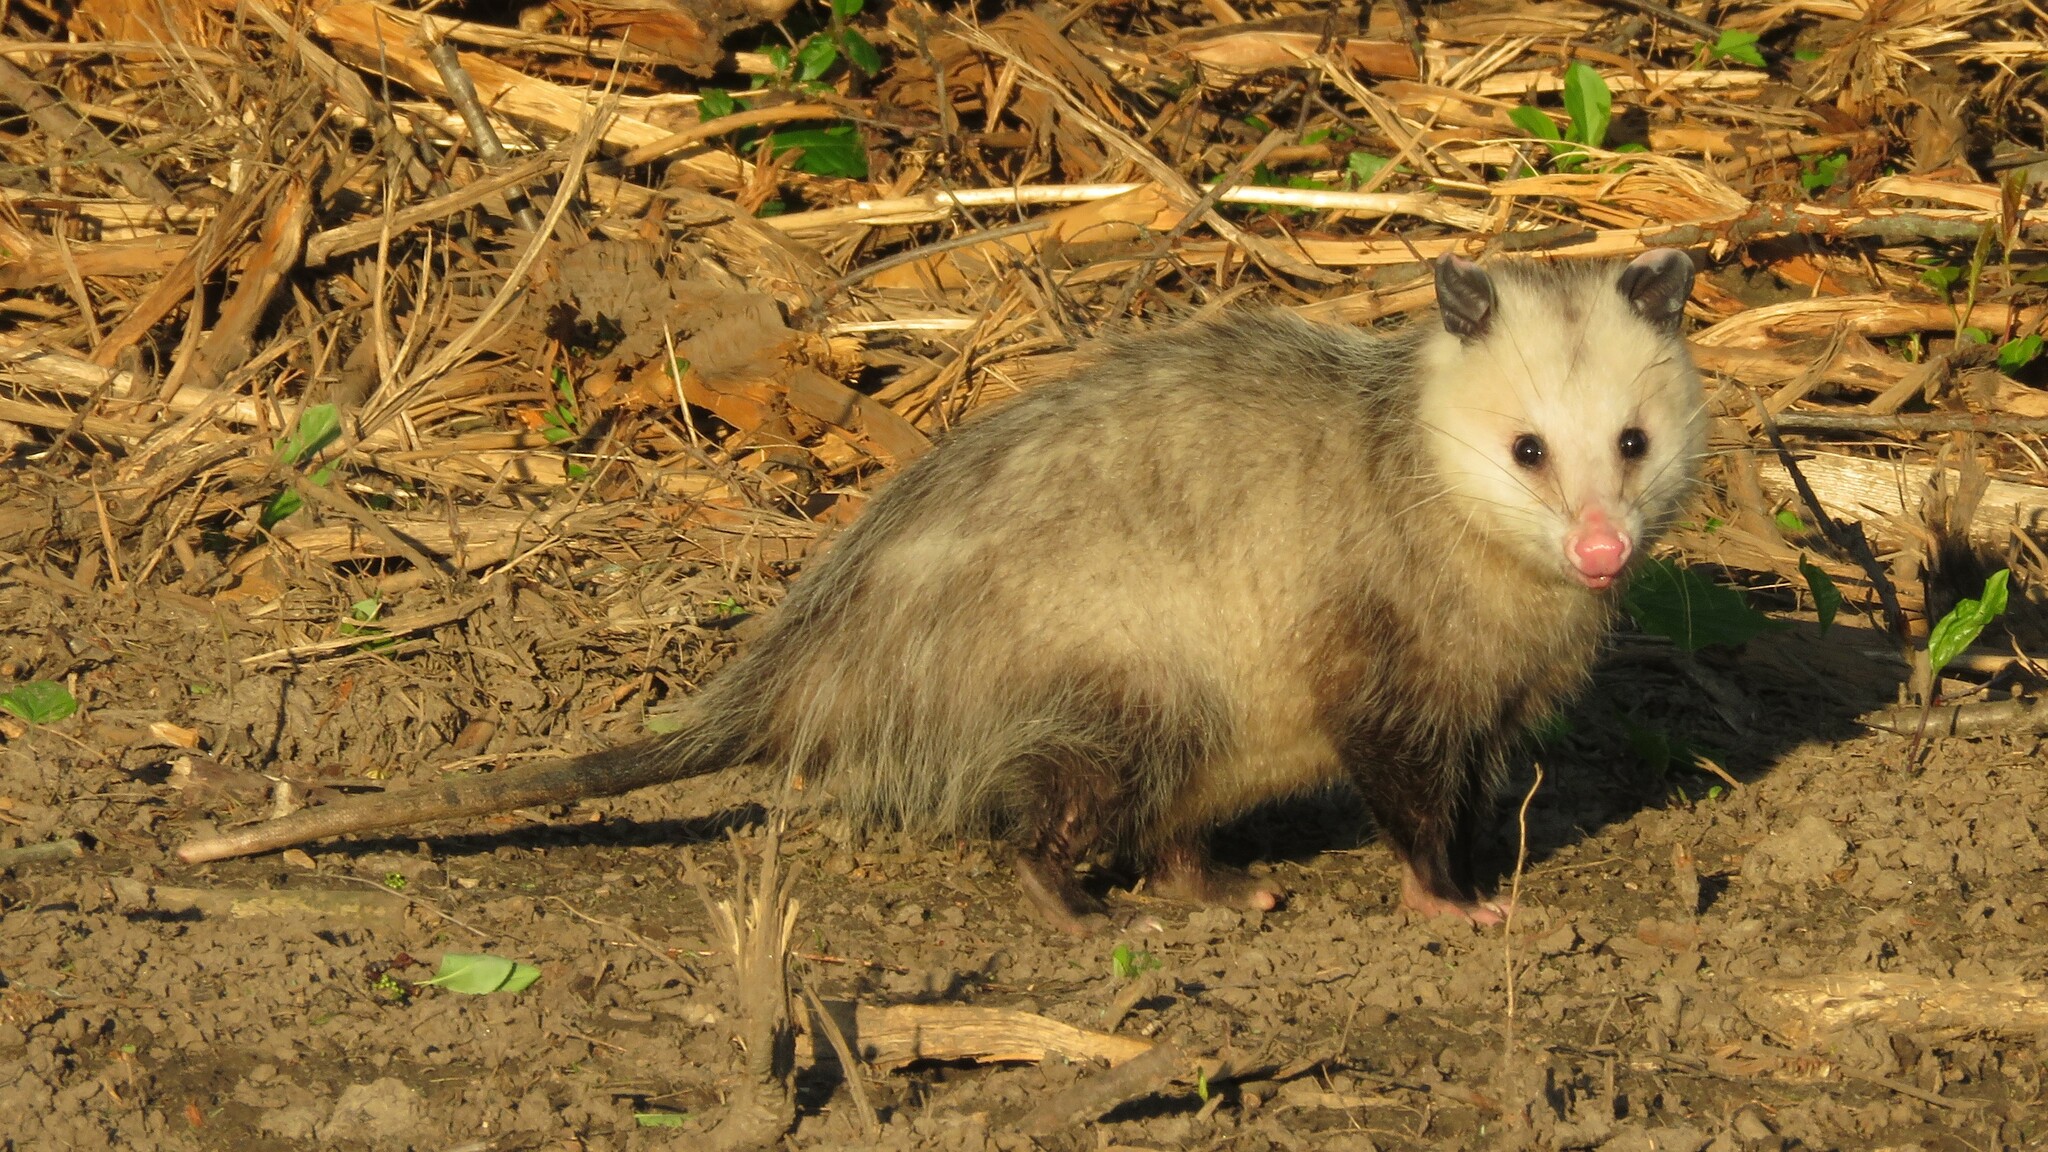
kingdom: Animalia
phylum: Chordata
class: Mammalia
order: Didelphimorphia
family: Didelphidae
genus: Didelphis
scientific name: Didelphis virginiana
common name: Virginia opossum
